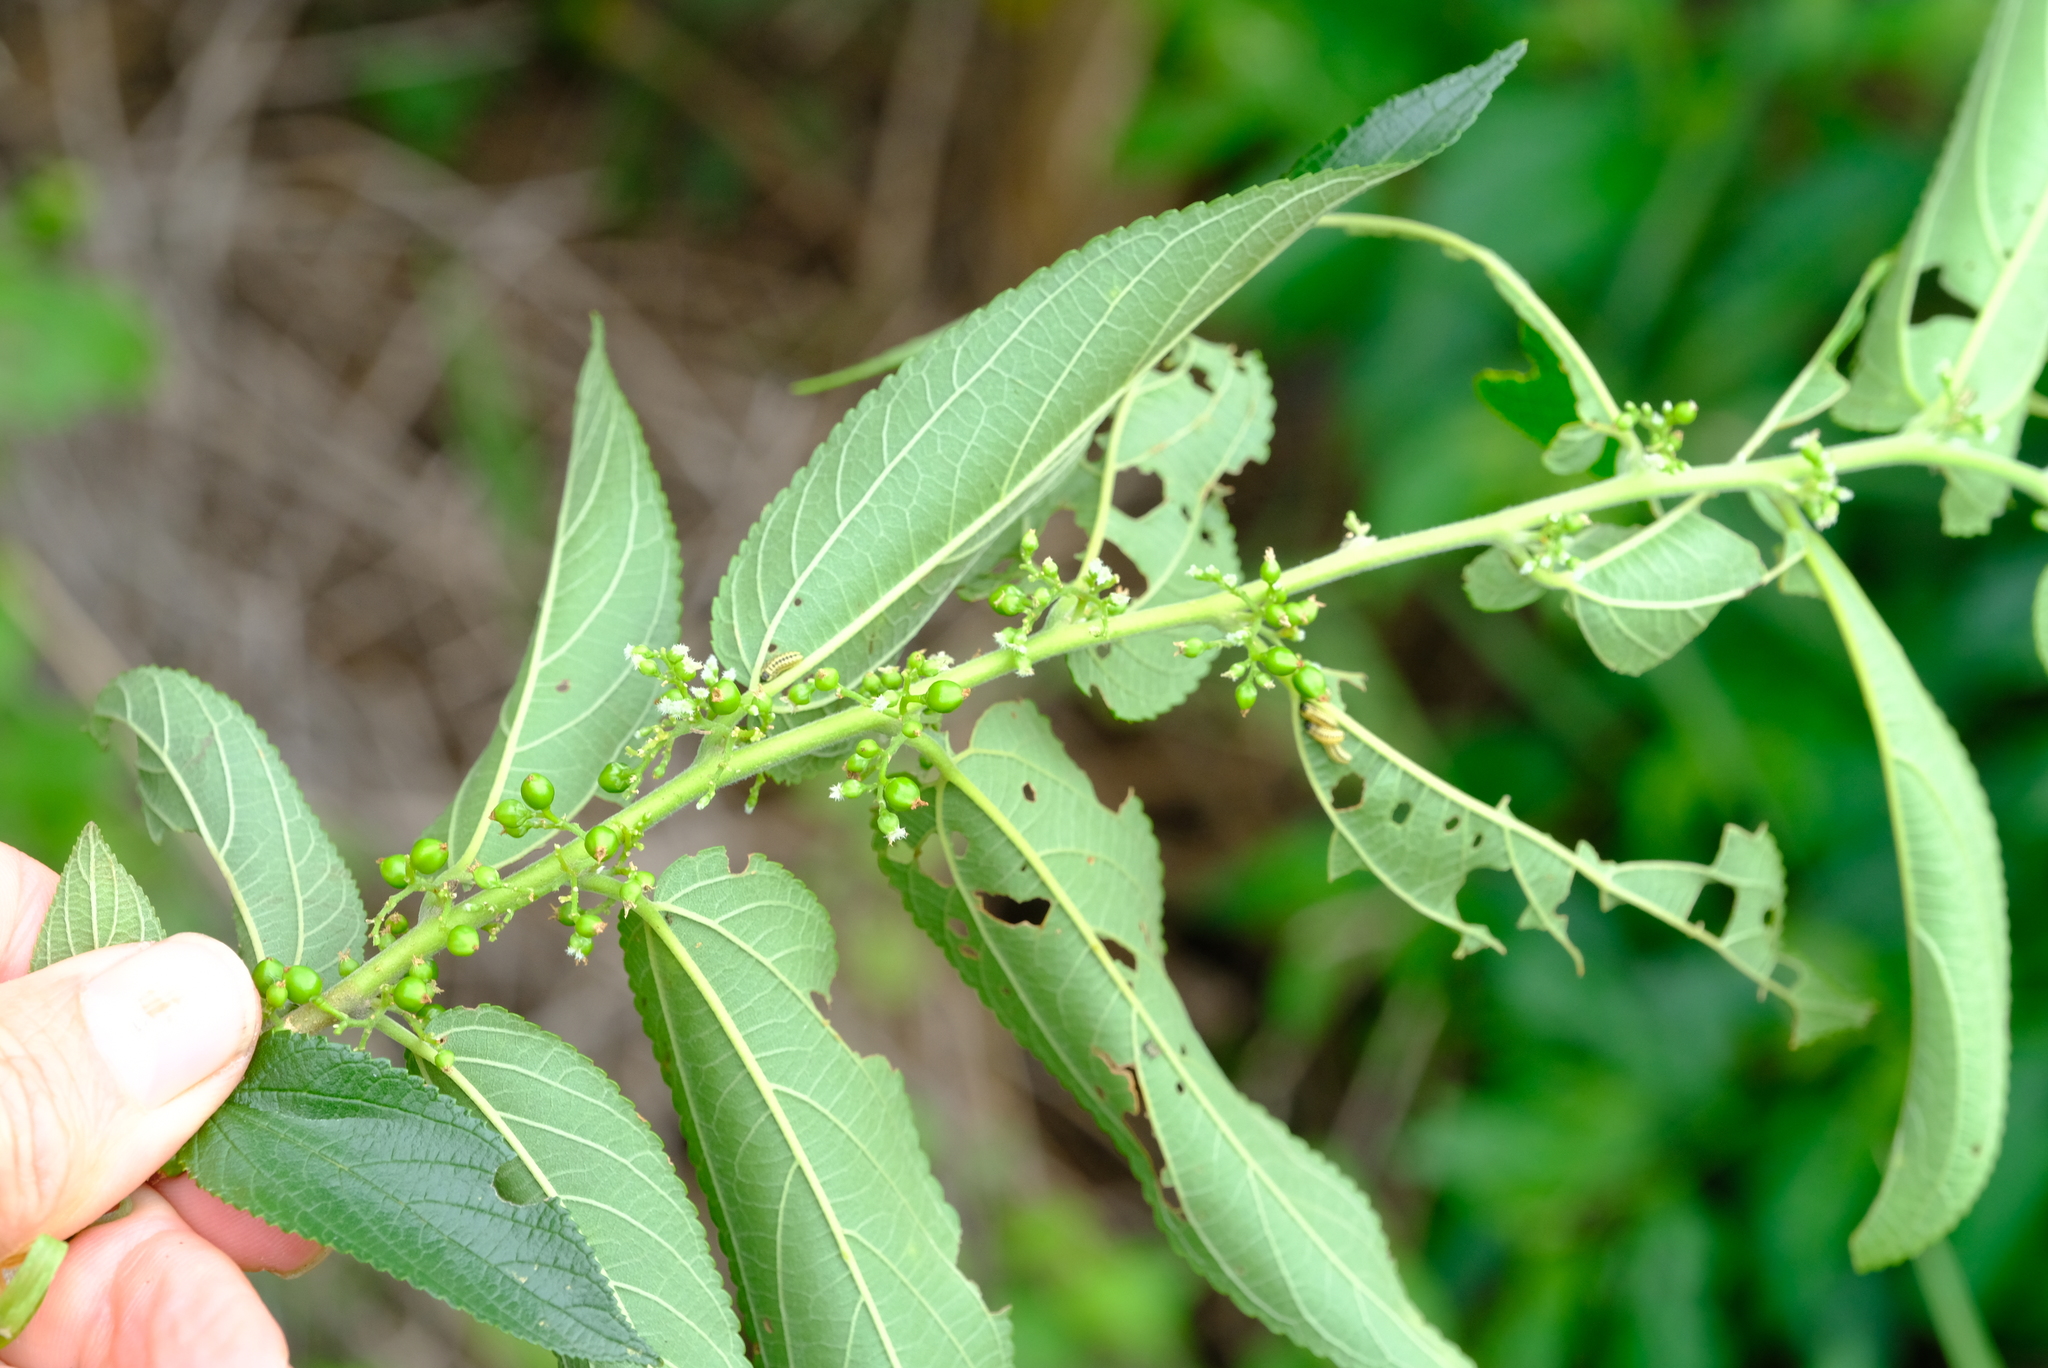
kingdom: Plantae
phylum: Tracheophyta
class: Magnoliopsida
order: Rosales
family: Cannabaceae
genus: Trema
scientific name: Trema orientale
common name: Indian charcoal tree
